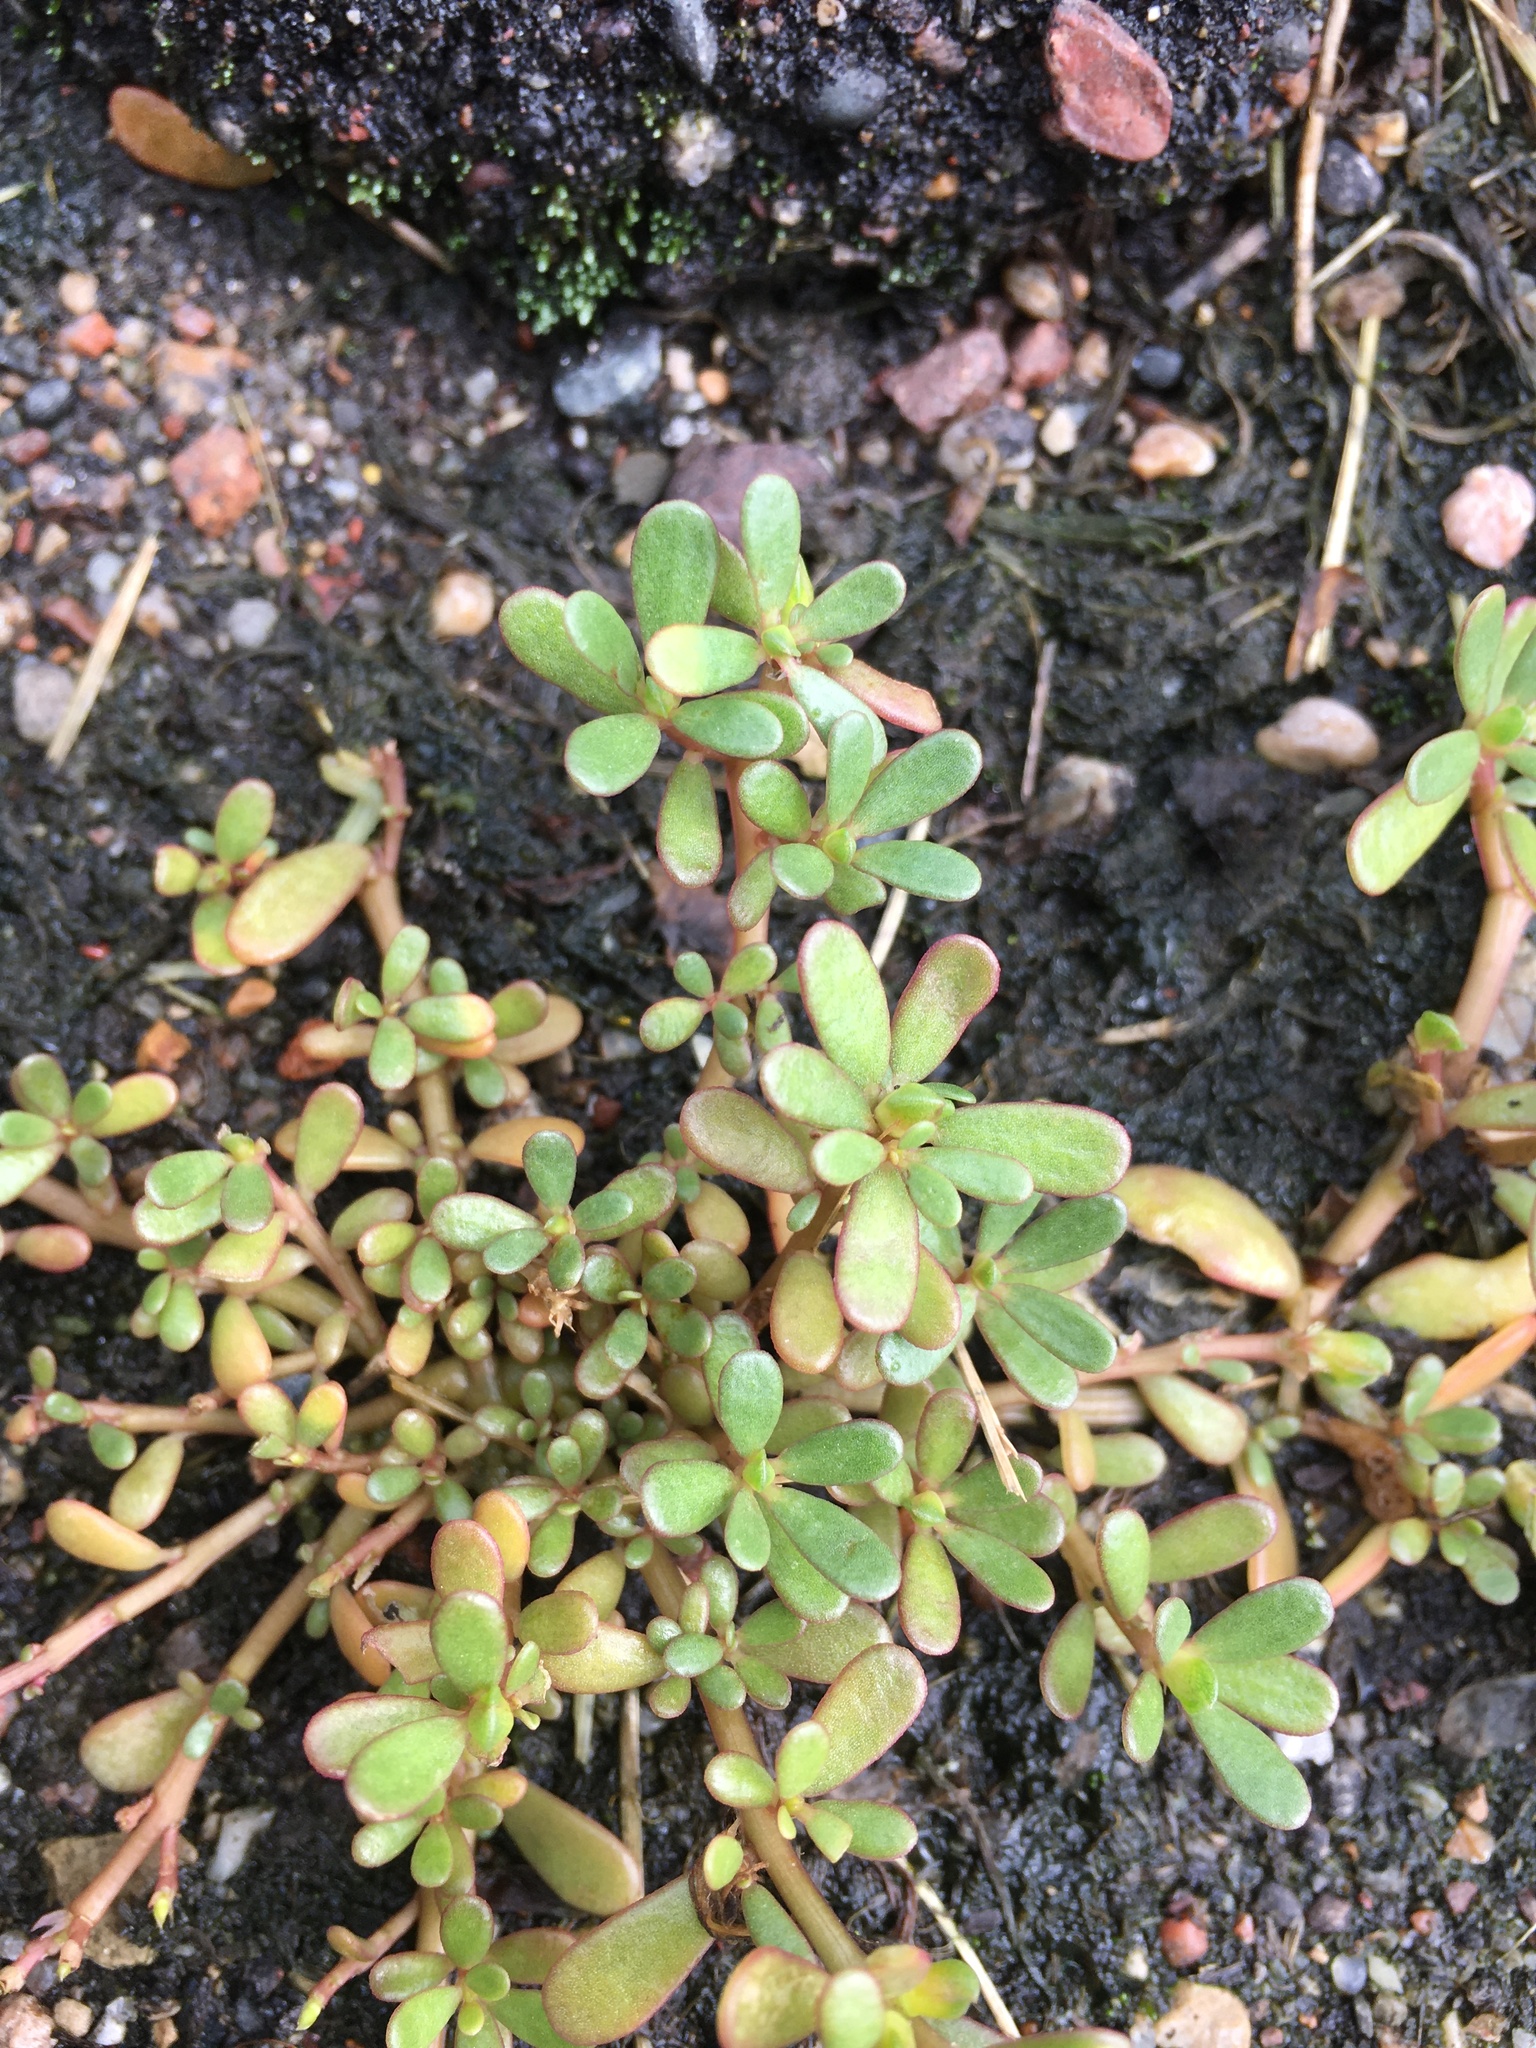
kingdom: Plantae
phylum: Tracheophyta
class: Magnoliopsida
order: Caryophyllales
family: Portulacaceae
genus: Portulaca
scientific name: Portulaca oleracea
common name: Common purslane
